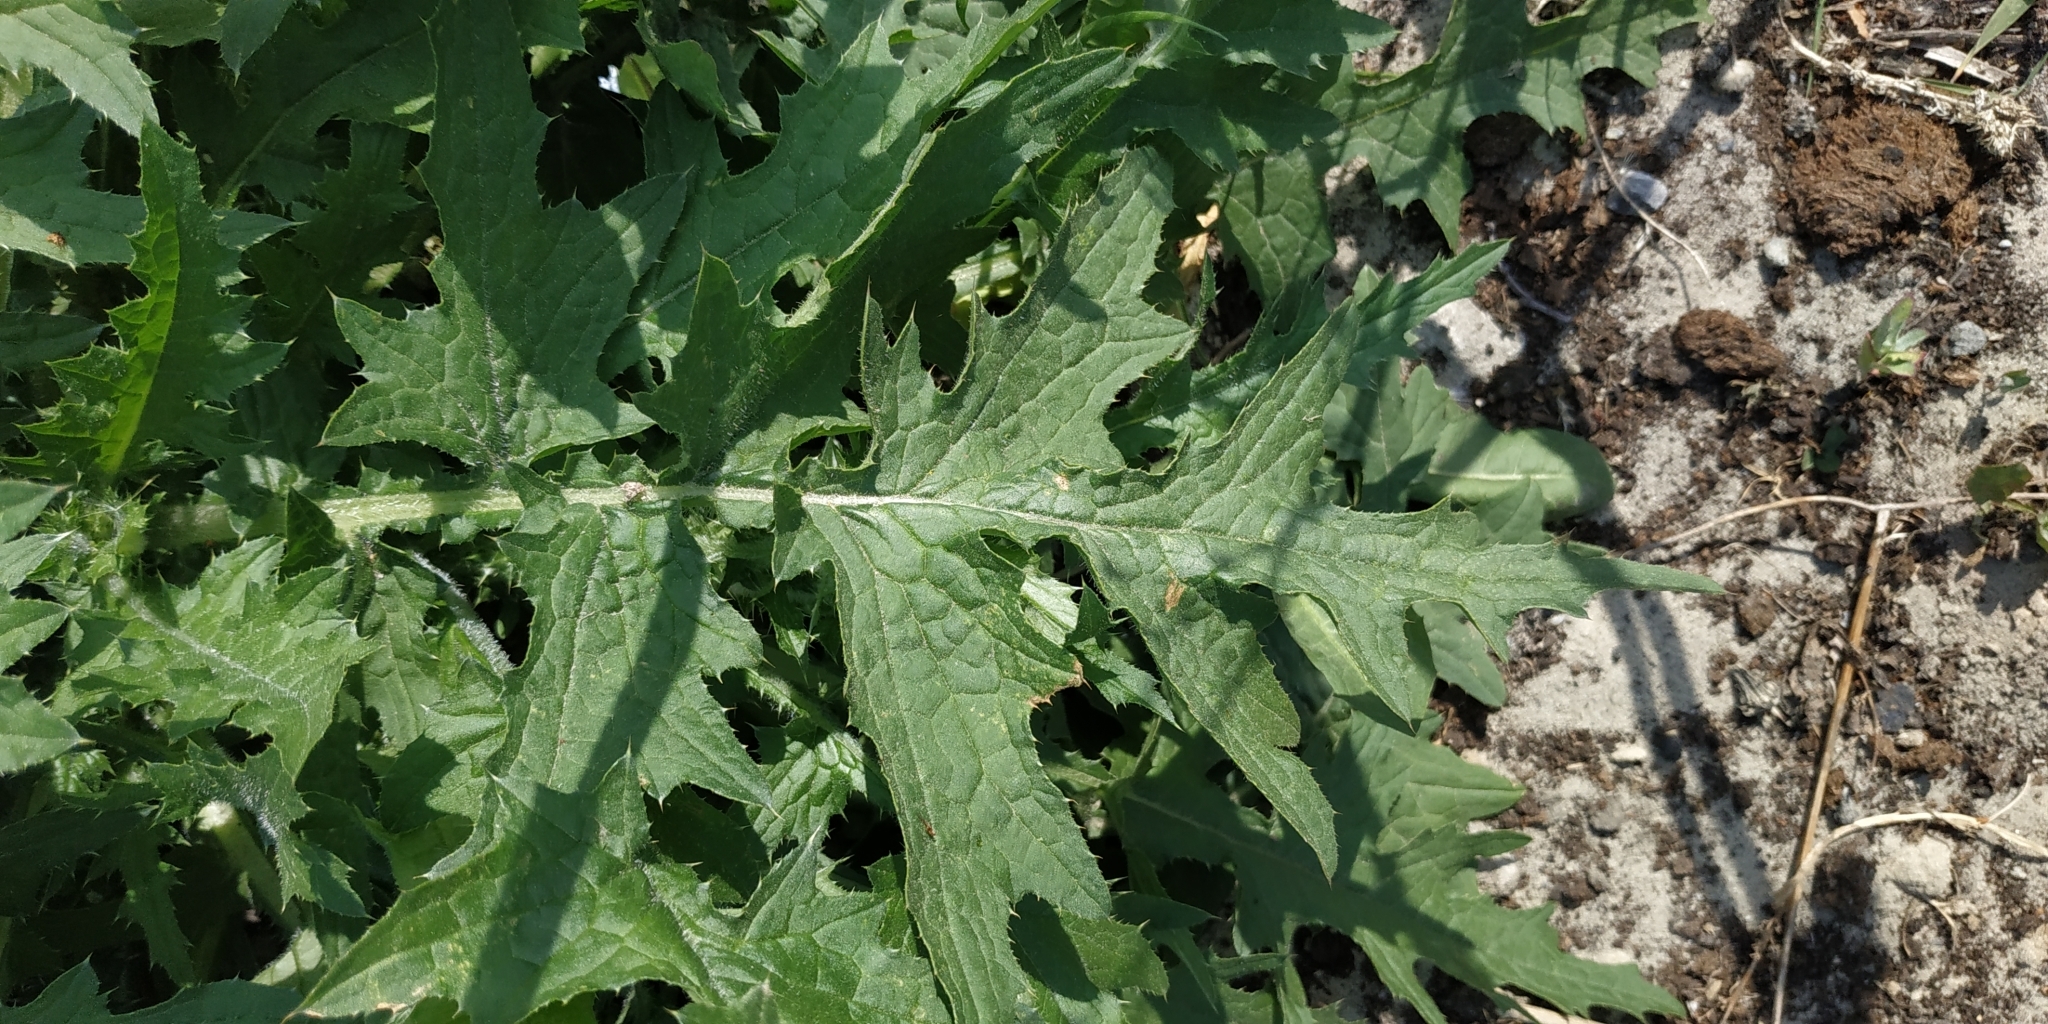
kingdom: Plantae
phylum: Tracheophyta
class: Magnoliopsida
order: Brassicales
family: Brassicaceae
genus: Sisymbrium
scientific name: Sisymbrium loeselii
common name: False london-rocket
